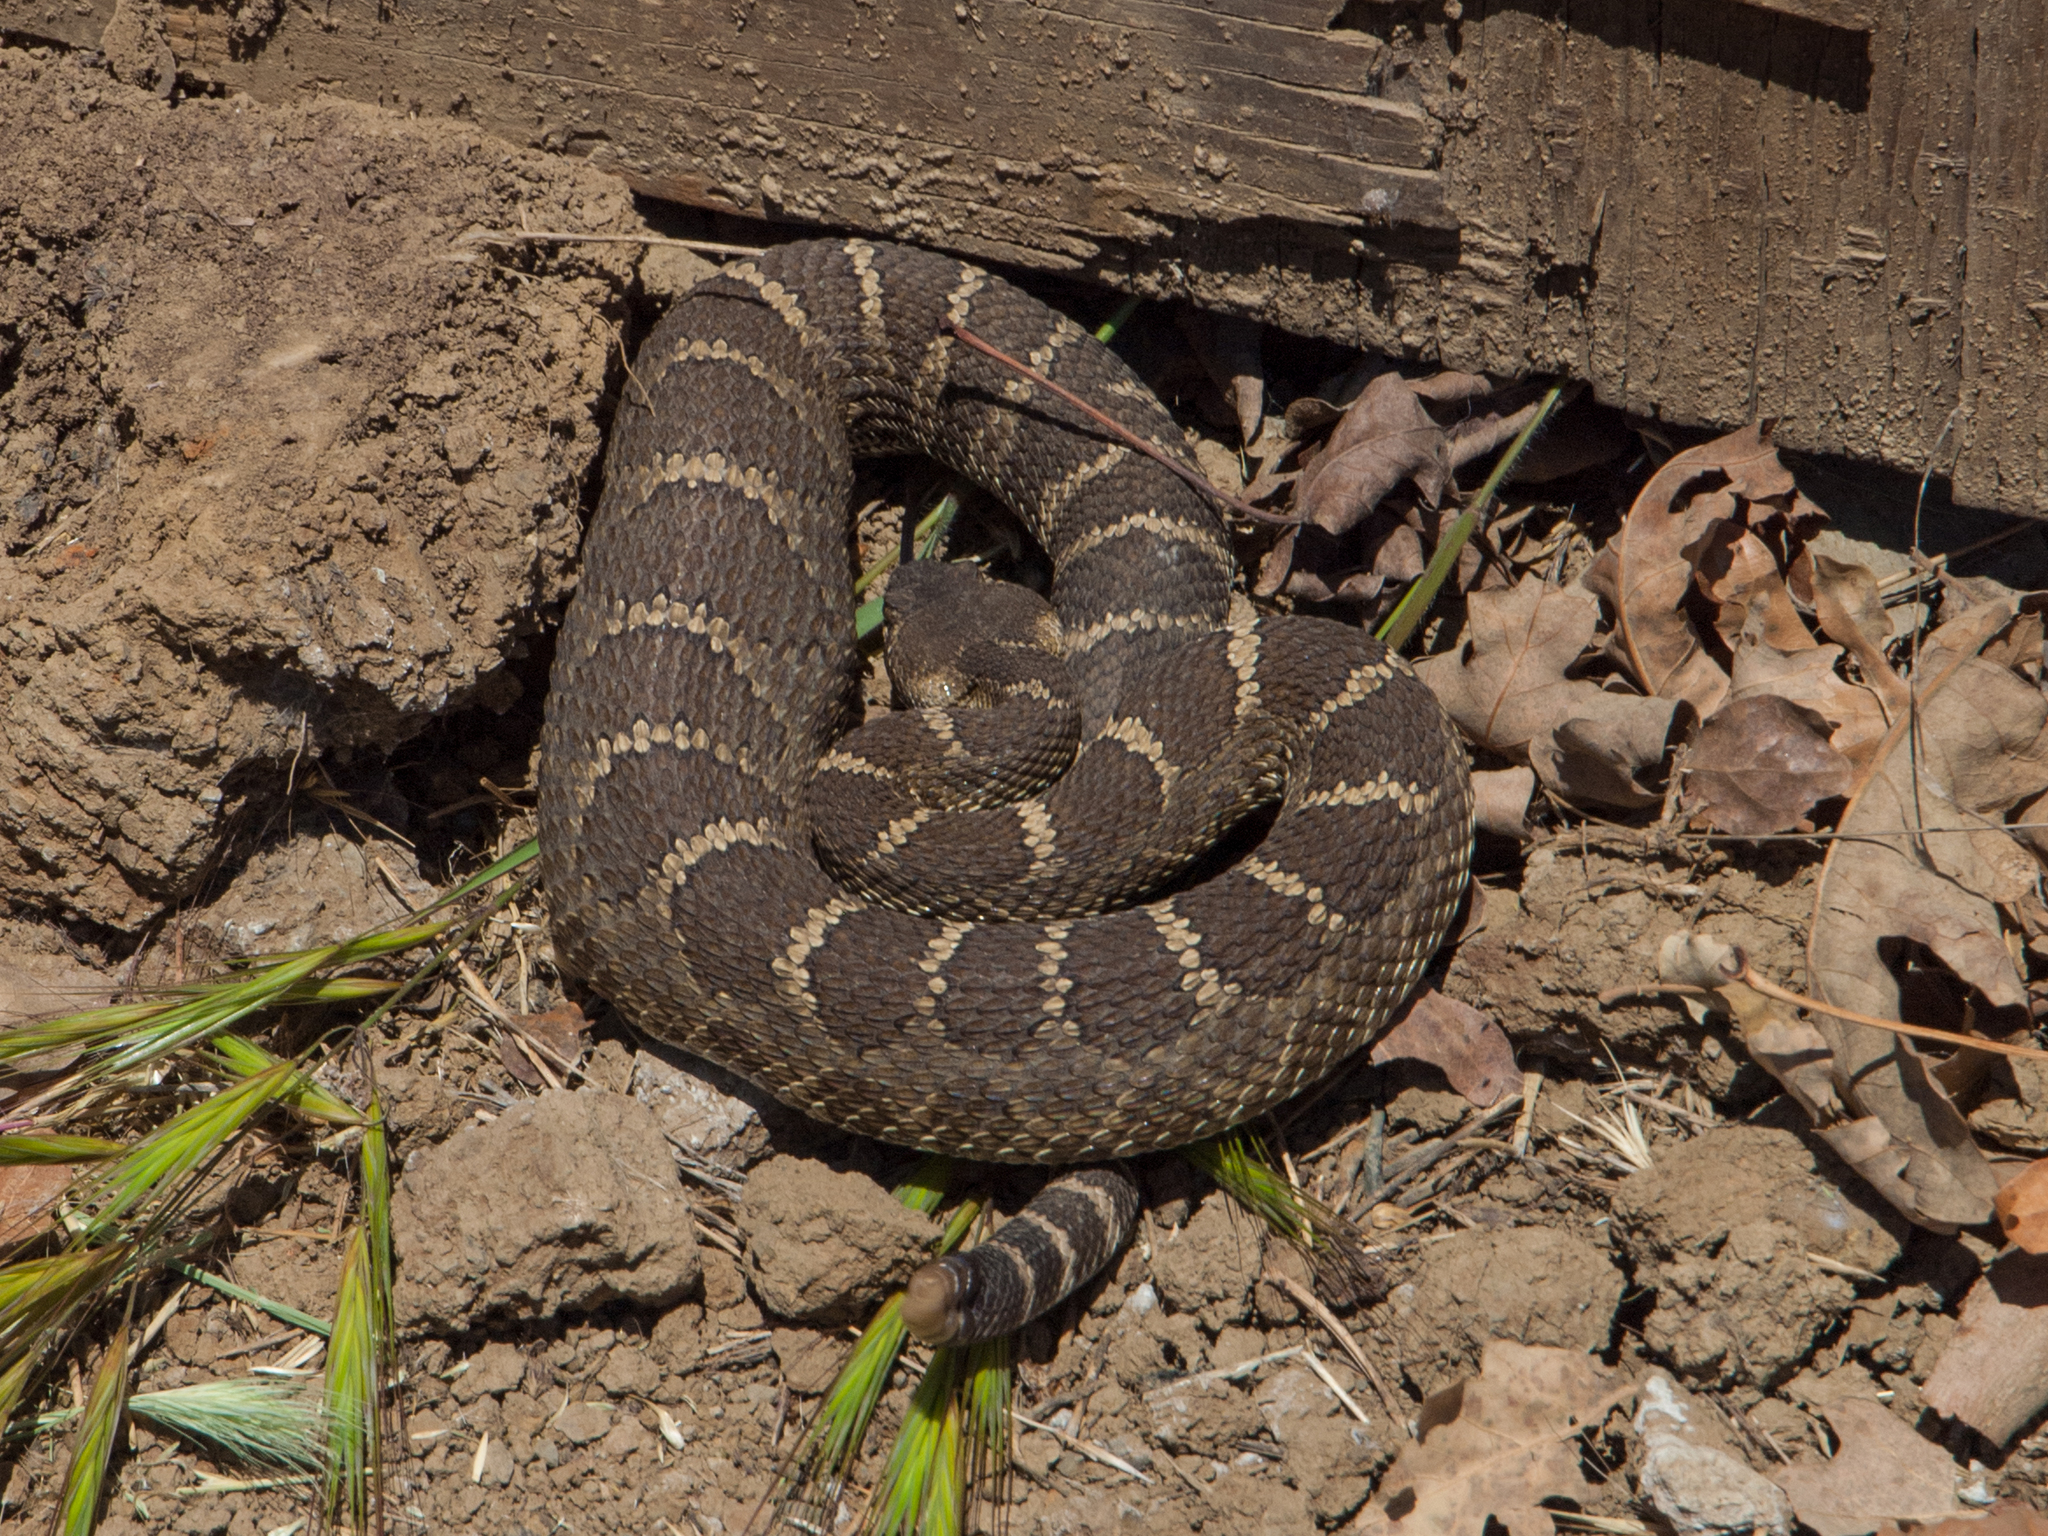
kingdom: Animalia
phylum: Chordata
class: Squamata
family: Viperidae
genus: Crotalus
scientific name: Crotalus oreganus
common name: Abyssus
